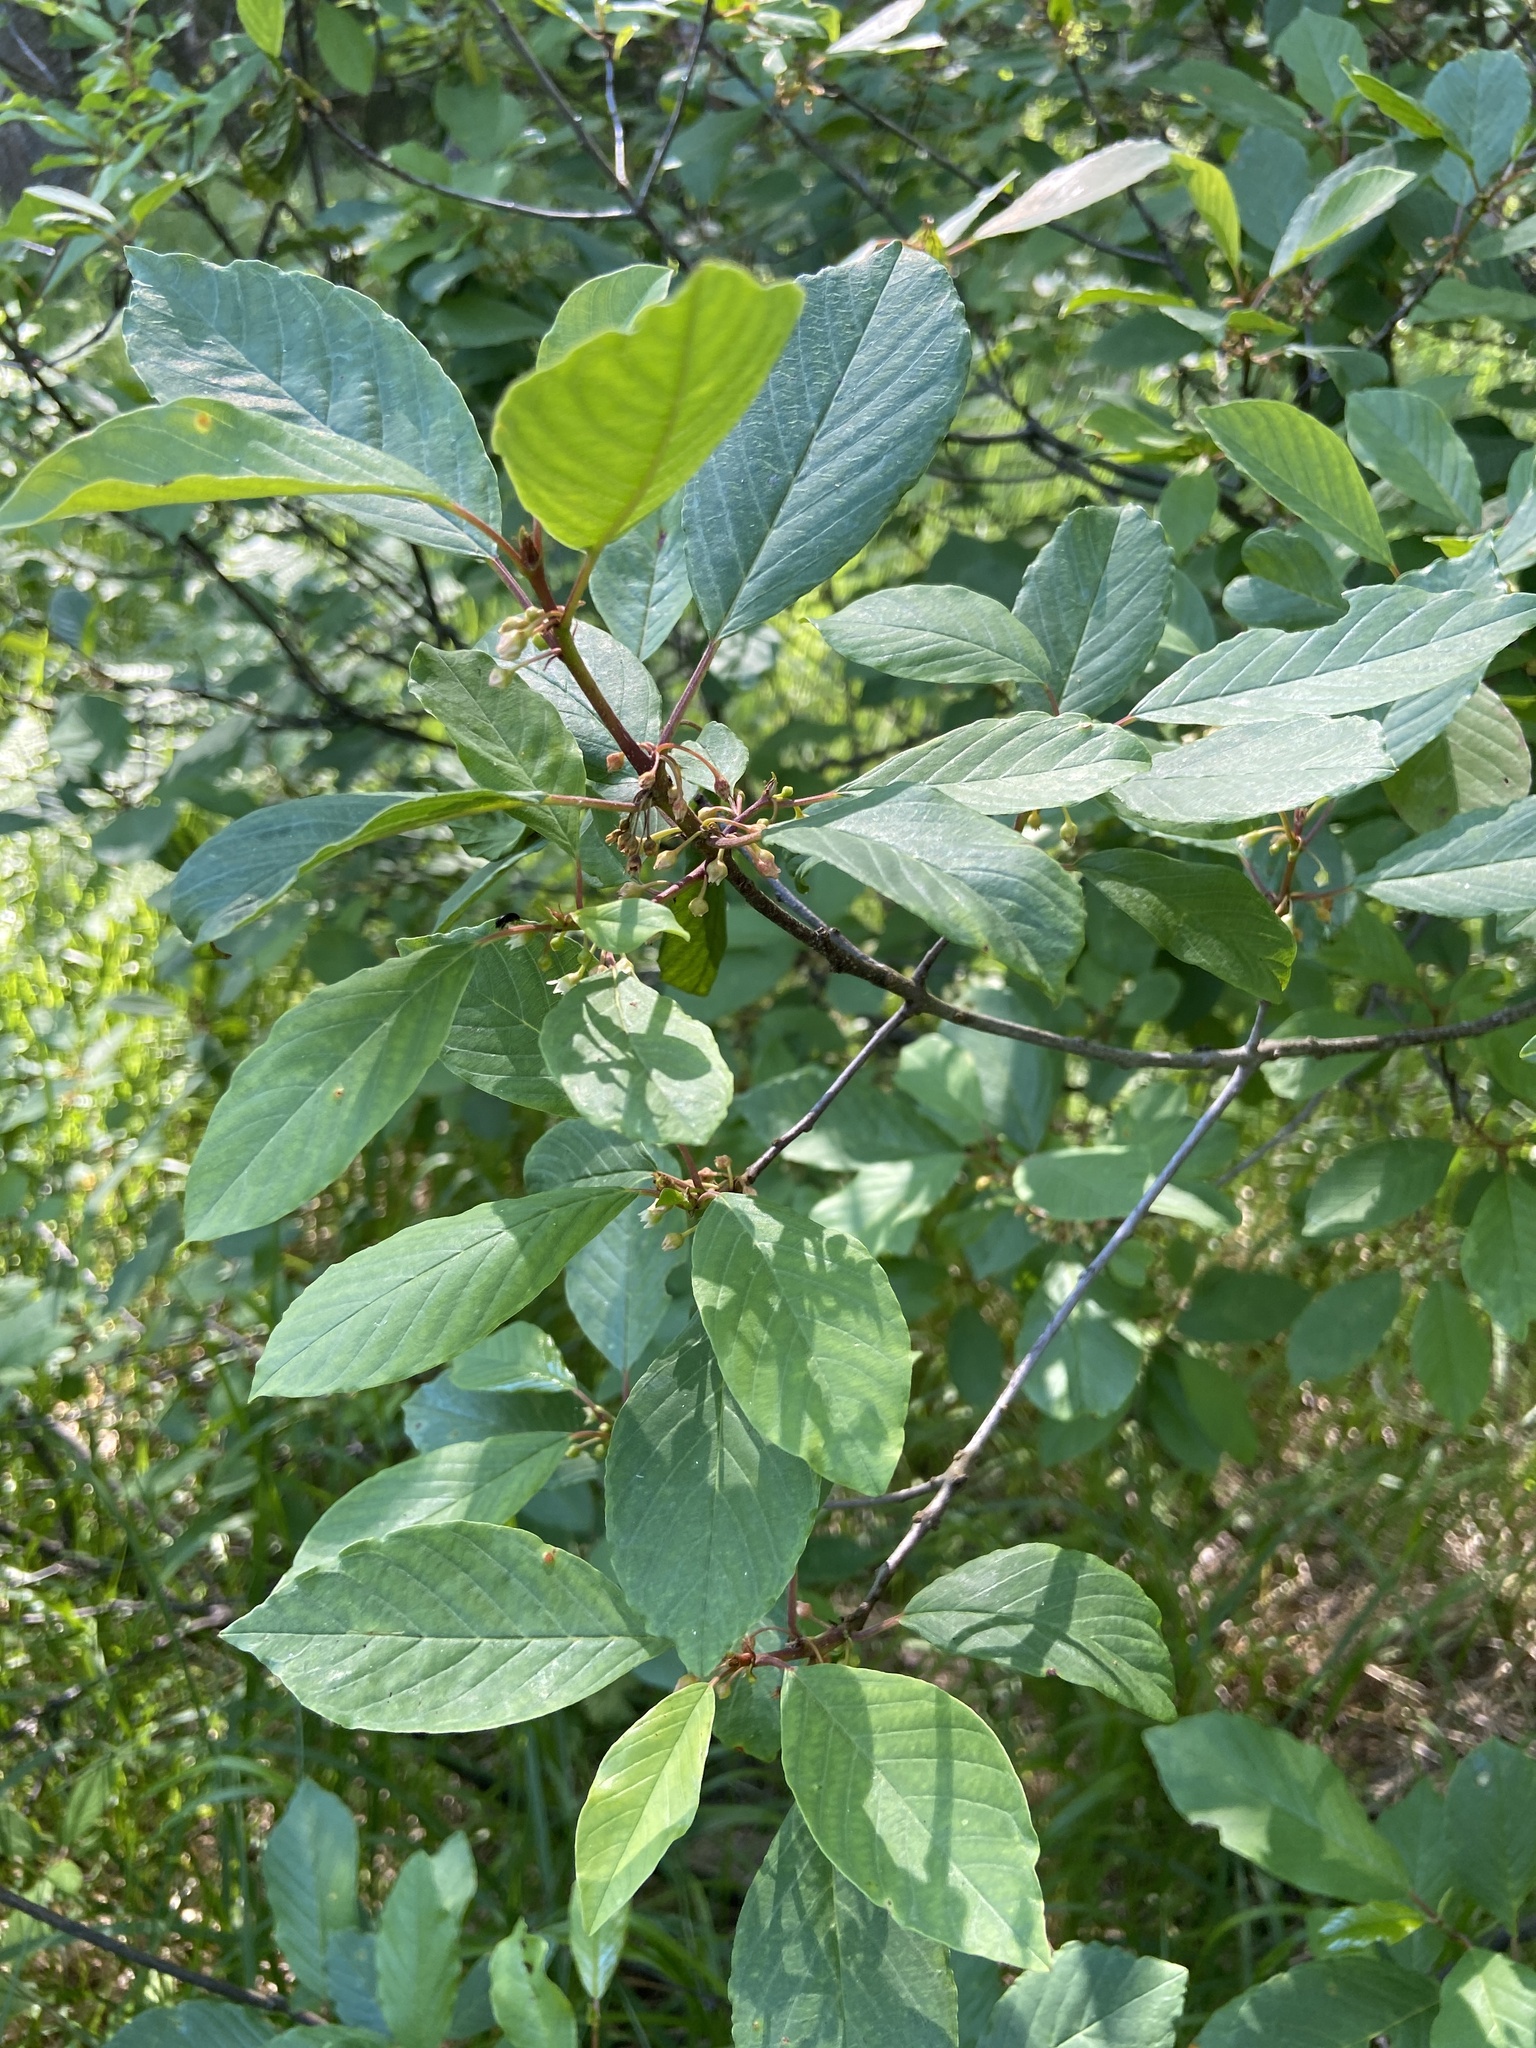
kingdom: Plantae
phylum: Tracheophyta
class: Magnoliopsida
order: Rosales
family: Rhamnaceae
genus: Frangula
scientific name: Frangula alnus
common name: Alder buckthorn
